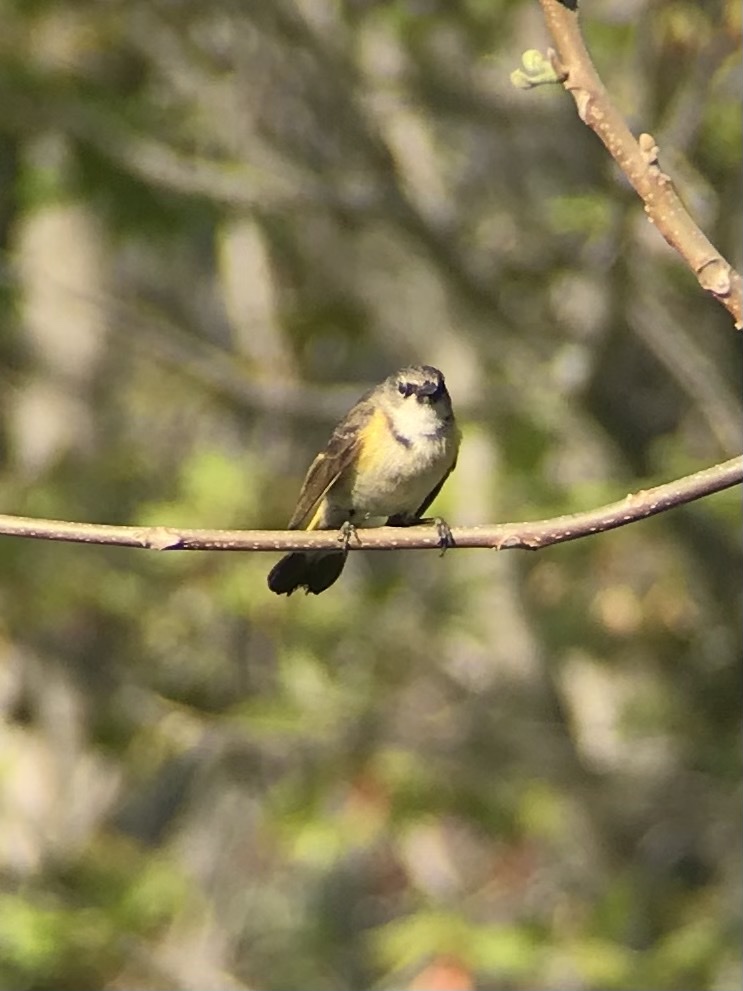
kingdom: Animalia
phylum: Chordata
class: Aves
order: Passeriformes
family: Parulidae
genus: Setophaga
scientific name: Setophaga ruticilla
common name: American redstart
